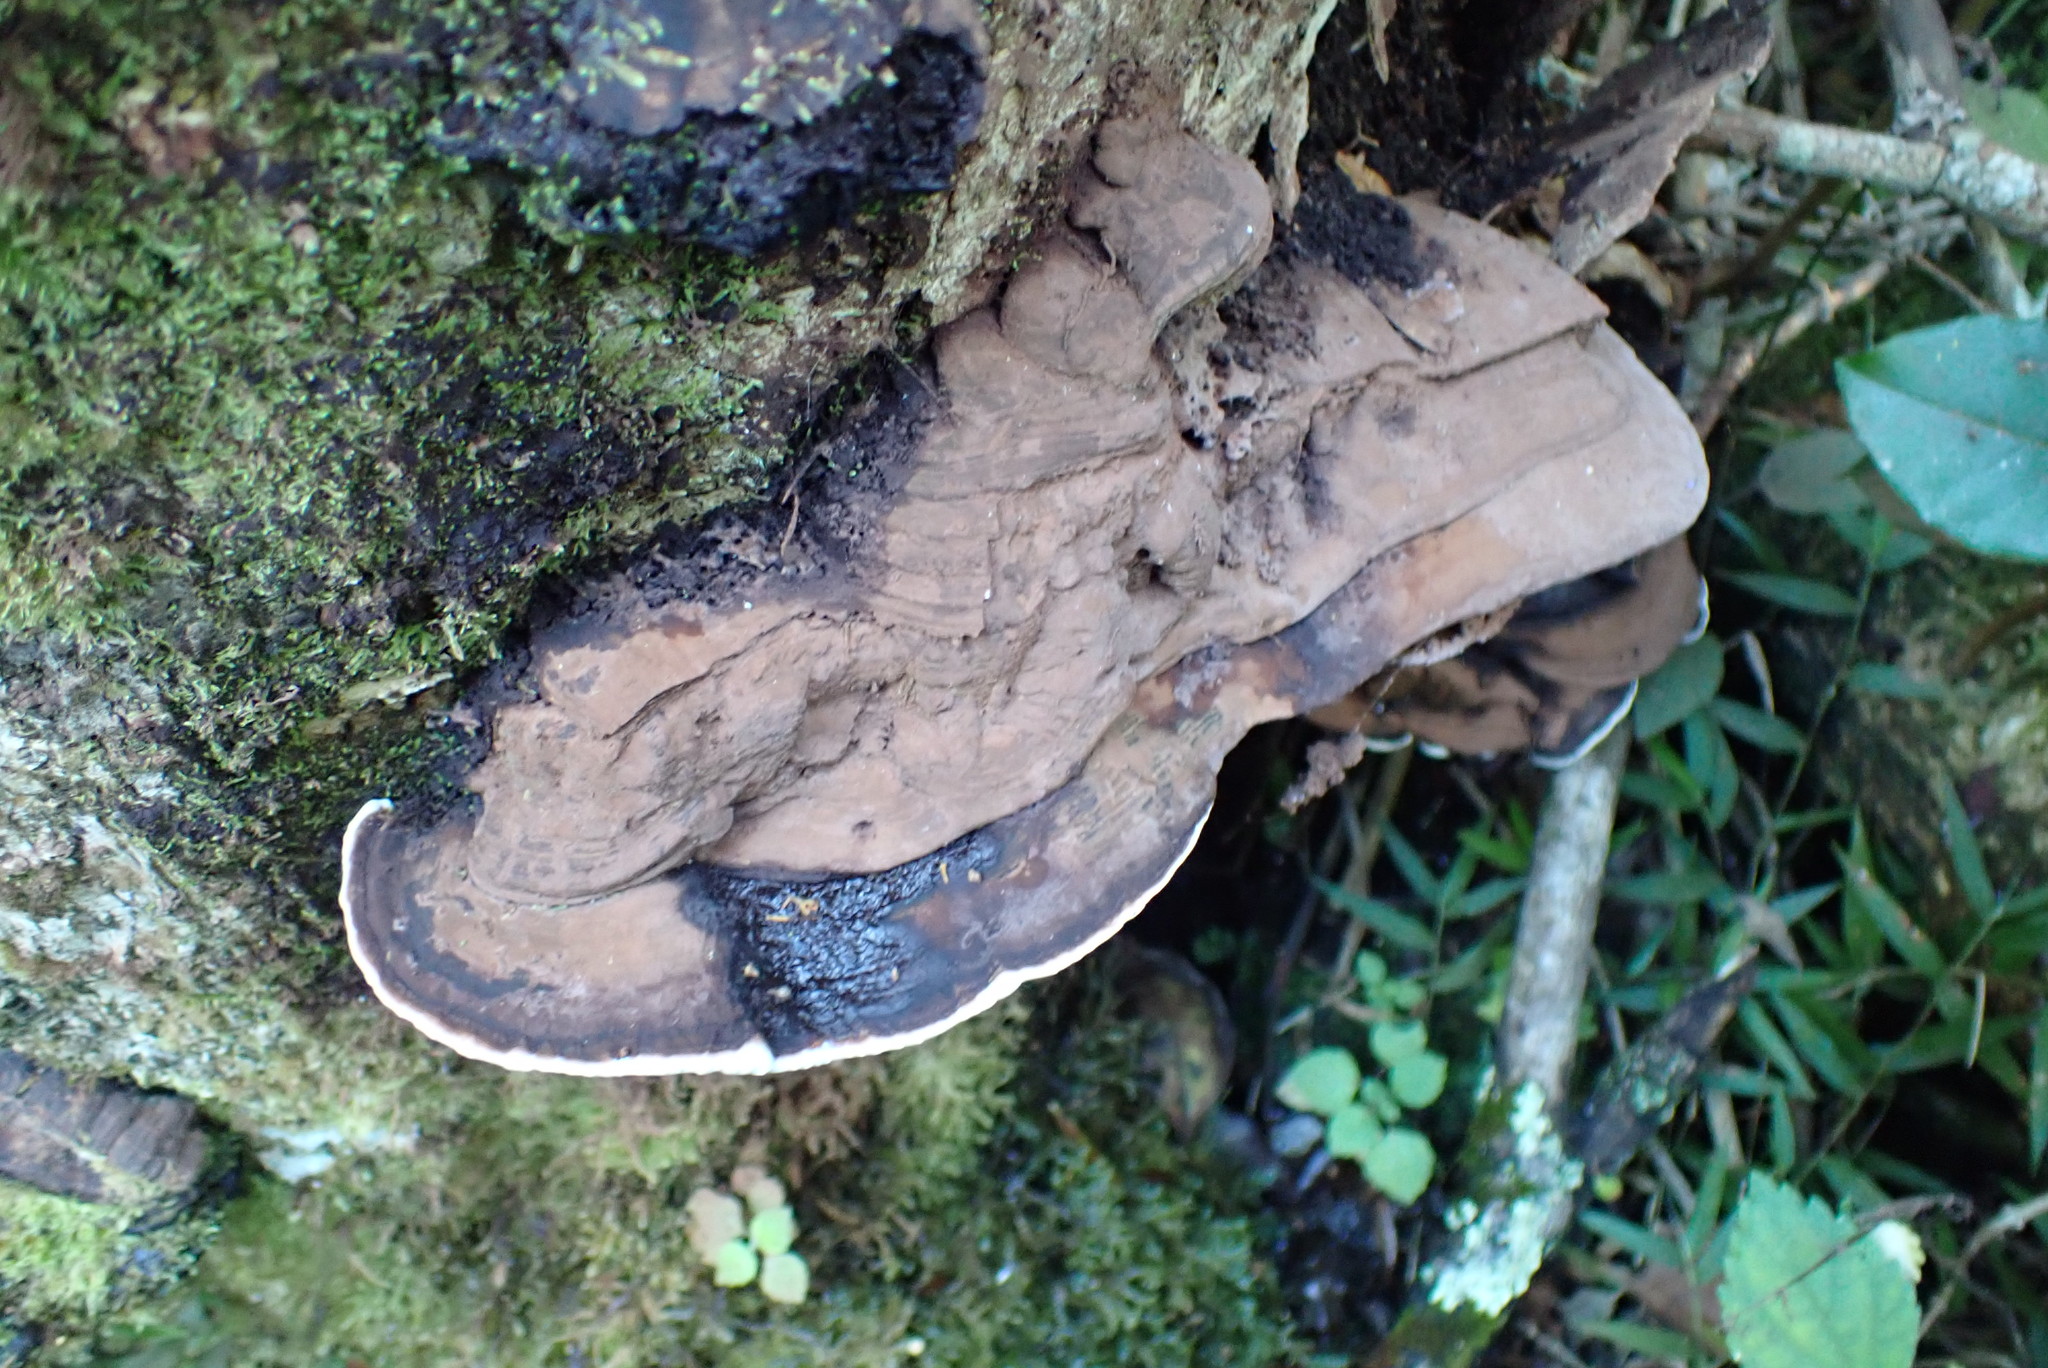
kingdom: Fungi
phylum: Basidiomycota
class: Agaricomycetes
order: Polyporales
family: Polyporaceae
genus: Ganoderma
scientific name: Ganoderma applanatum
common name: Artist's bracket
